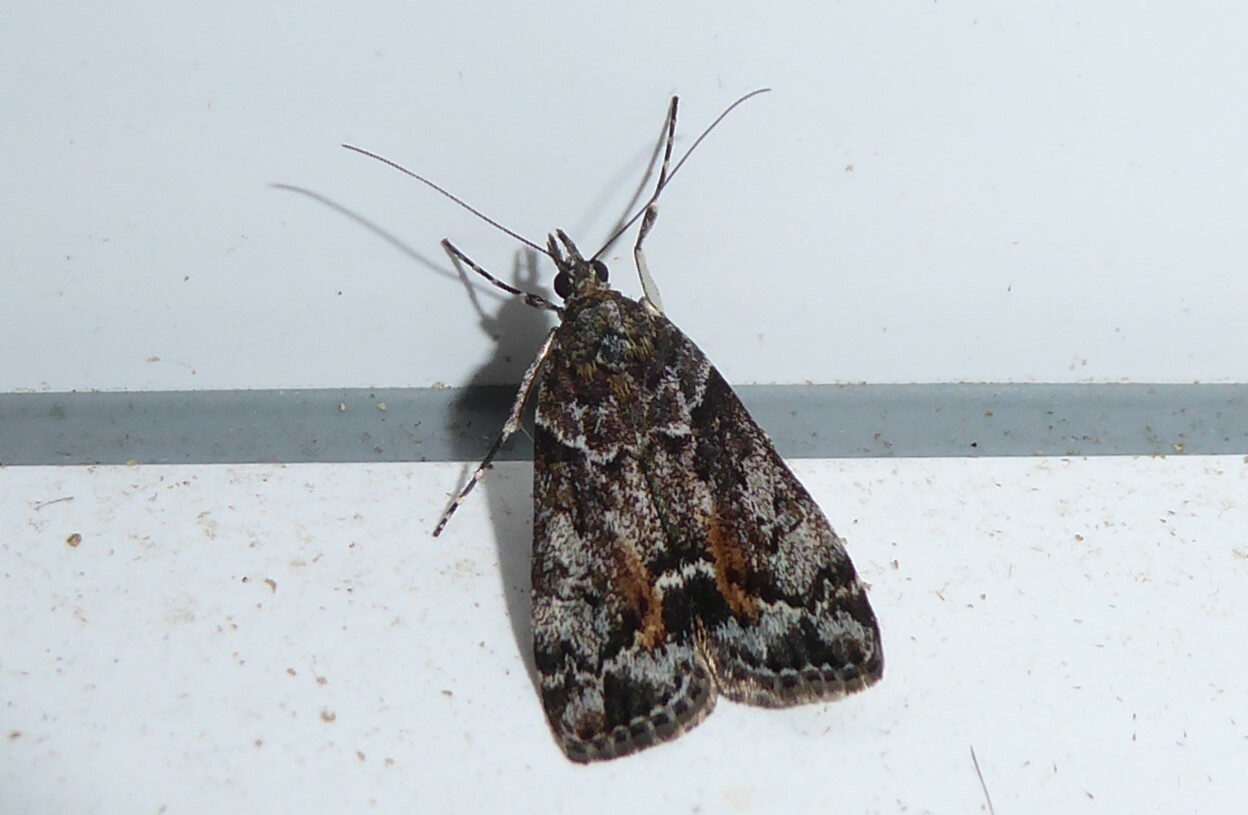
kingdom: Animalia
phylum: Arthropoda
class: Insecta
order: Lepidoptera
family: Crambidae
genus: Eudonia
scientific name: Eudonia submarginalis
